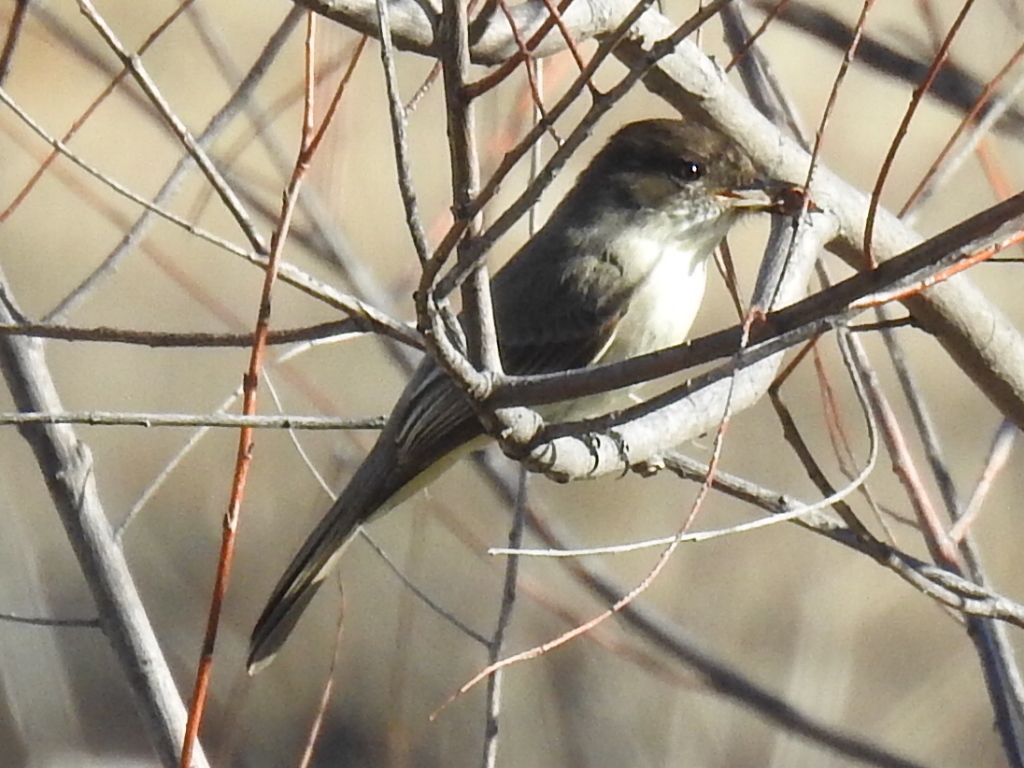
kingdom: Animalia
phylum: Chordata
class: Aves
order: Passeriformes
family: Tyrannidae
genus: Sayornis
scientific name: Sayornis phoebe
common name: Eastern phoebe
